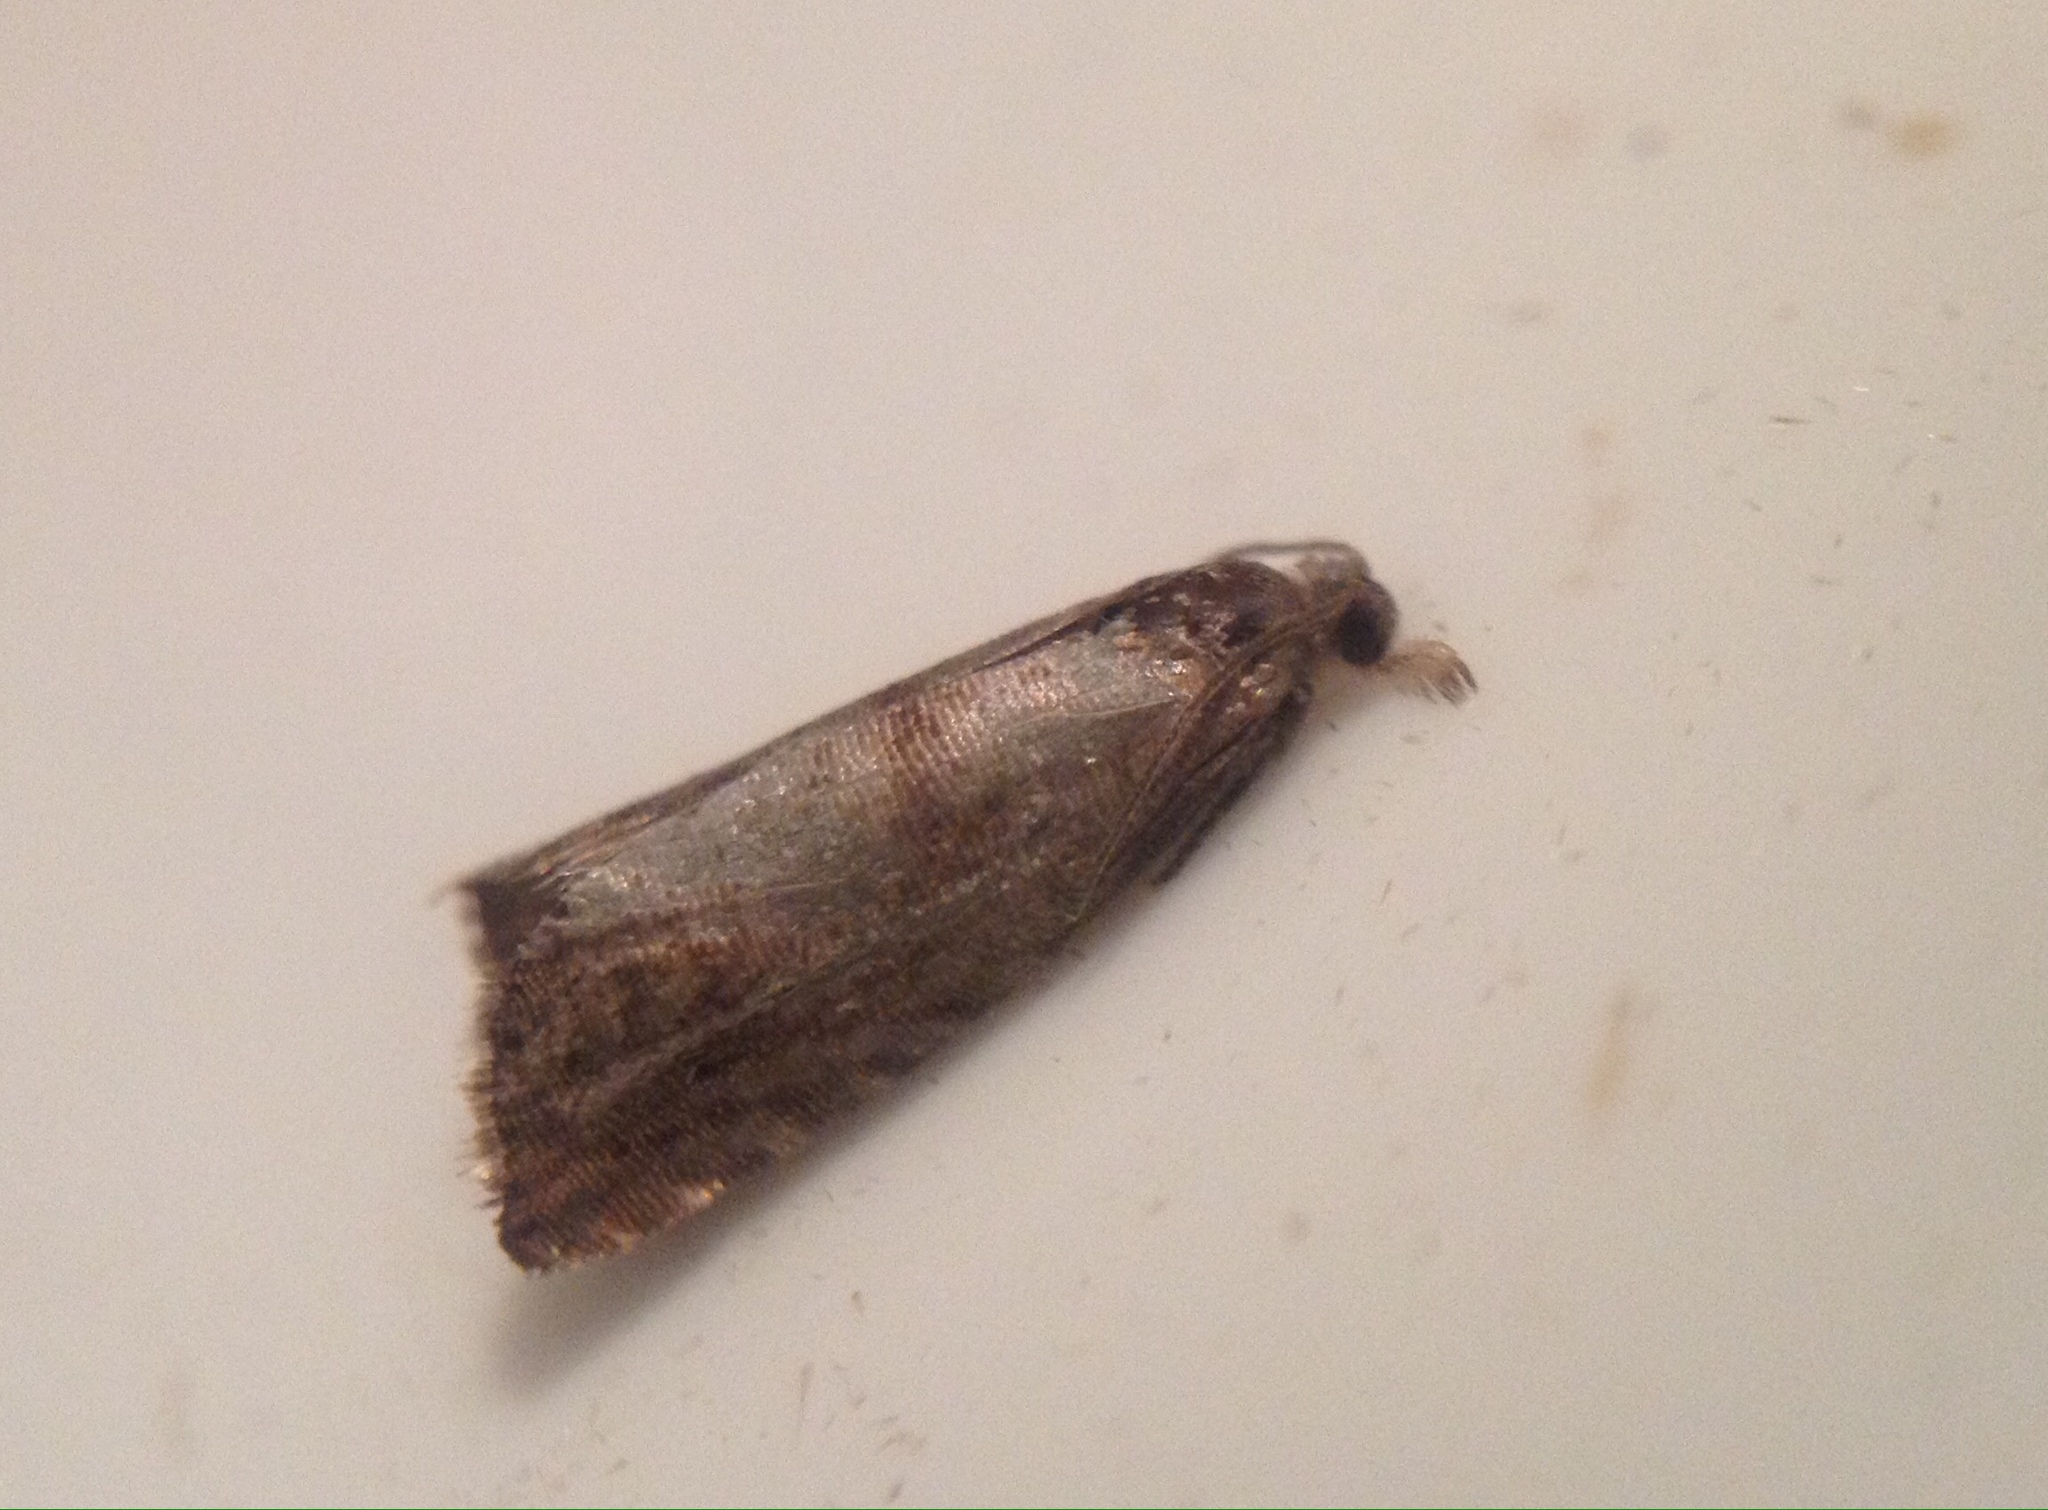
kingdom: Animalia
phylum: Arthropoda
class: Insecta
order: Lepidoptera
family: Tortricidae
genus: Cydia
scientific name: Cydia pomonella
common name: Codling moth
